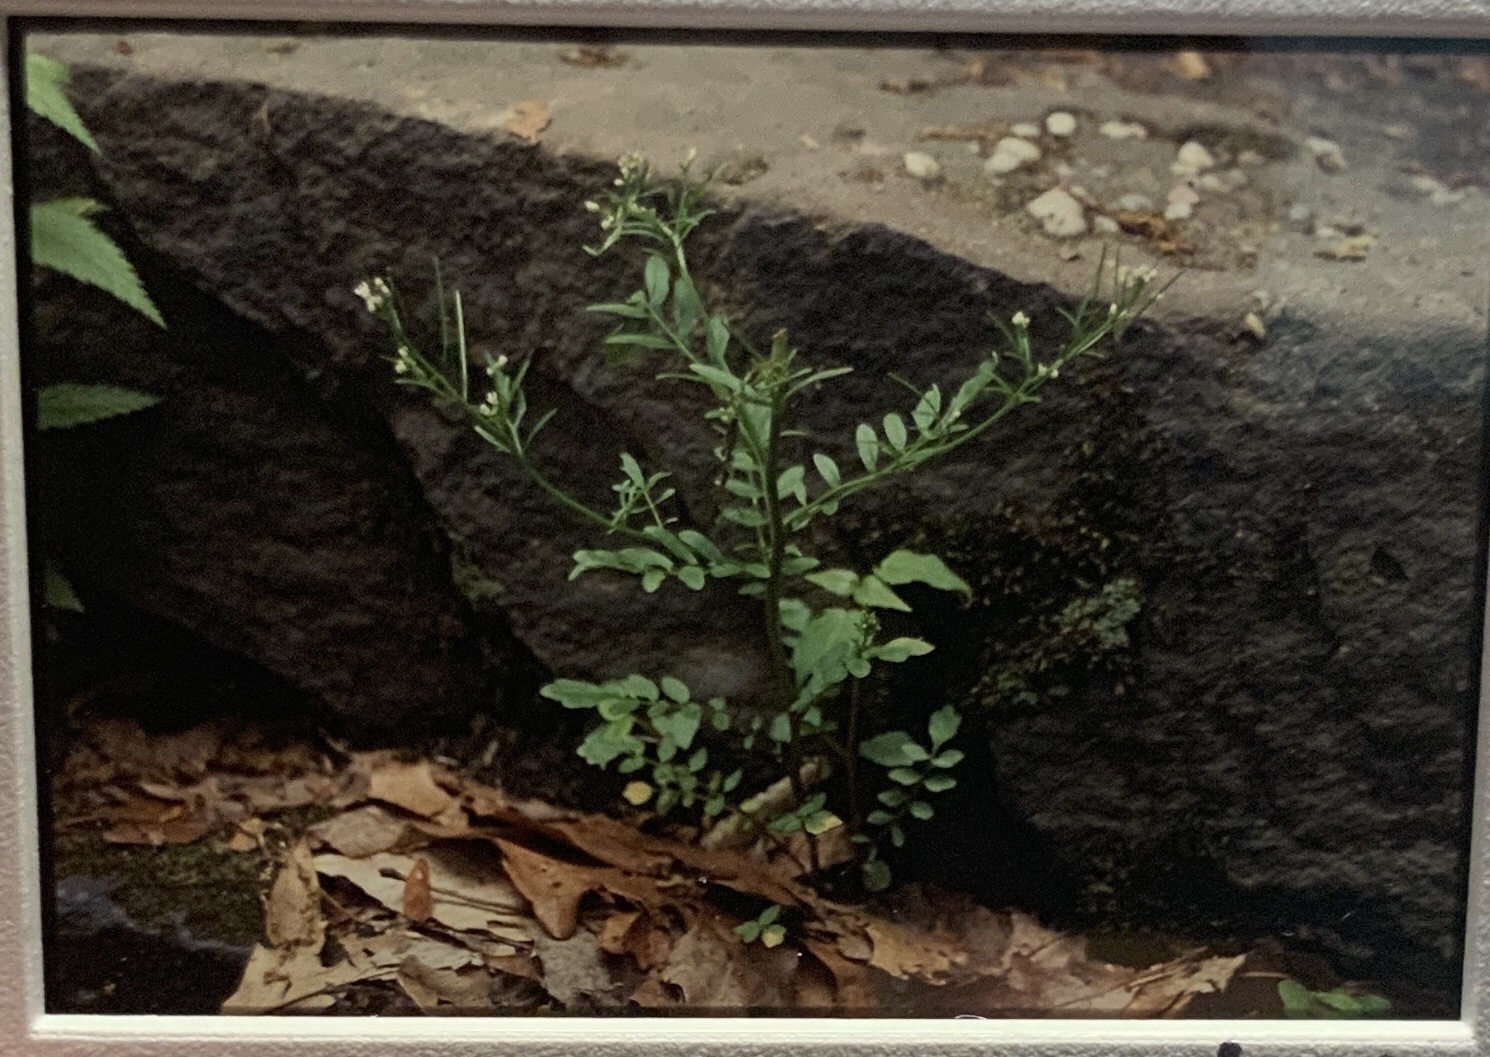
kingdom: Plantae
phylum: Tracheophyta
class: Magnoliopsida
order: Brassicales
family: Brassicaceae
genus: Cardamine
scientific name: Cardamine pensylvanica
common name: Pennsylvania bittercress
